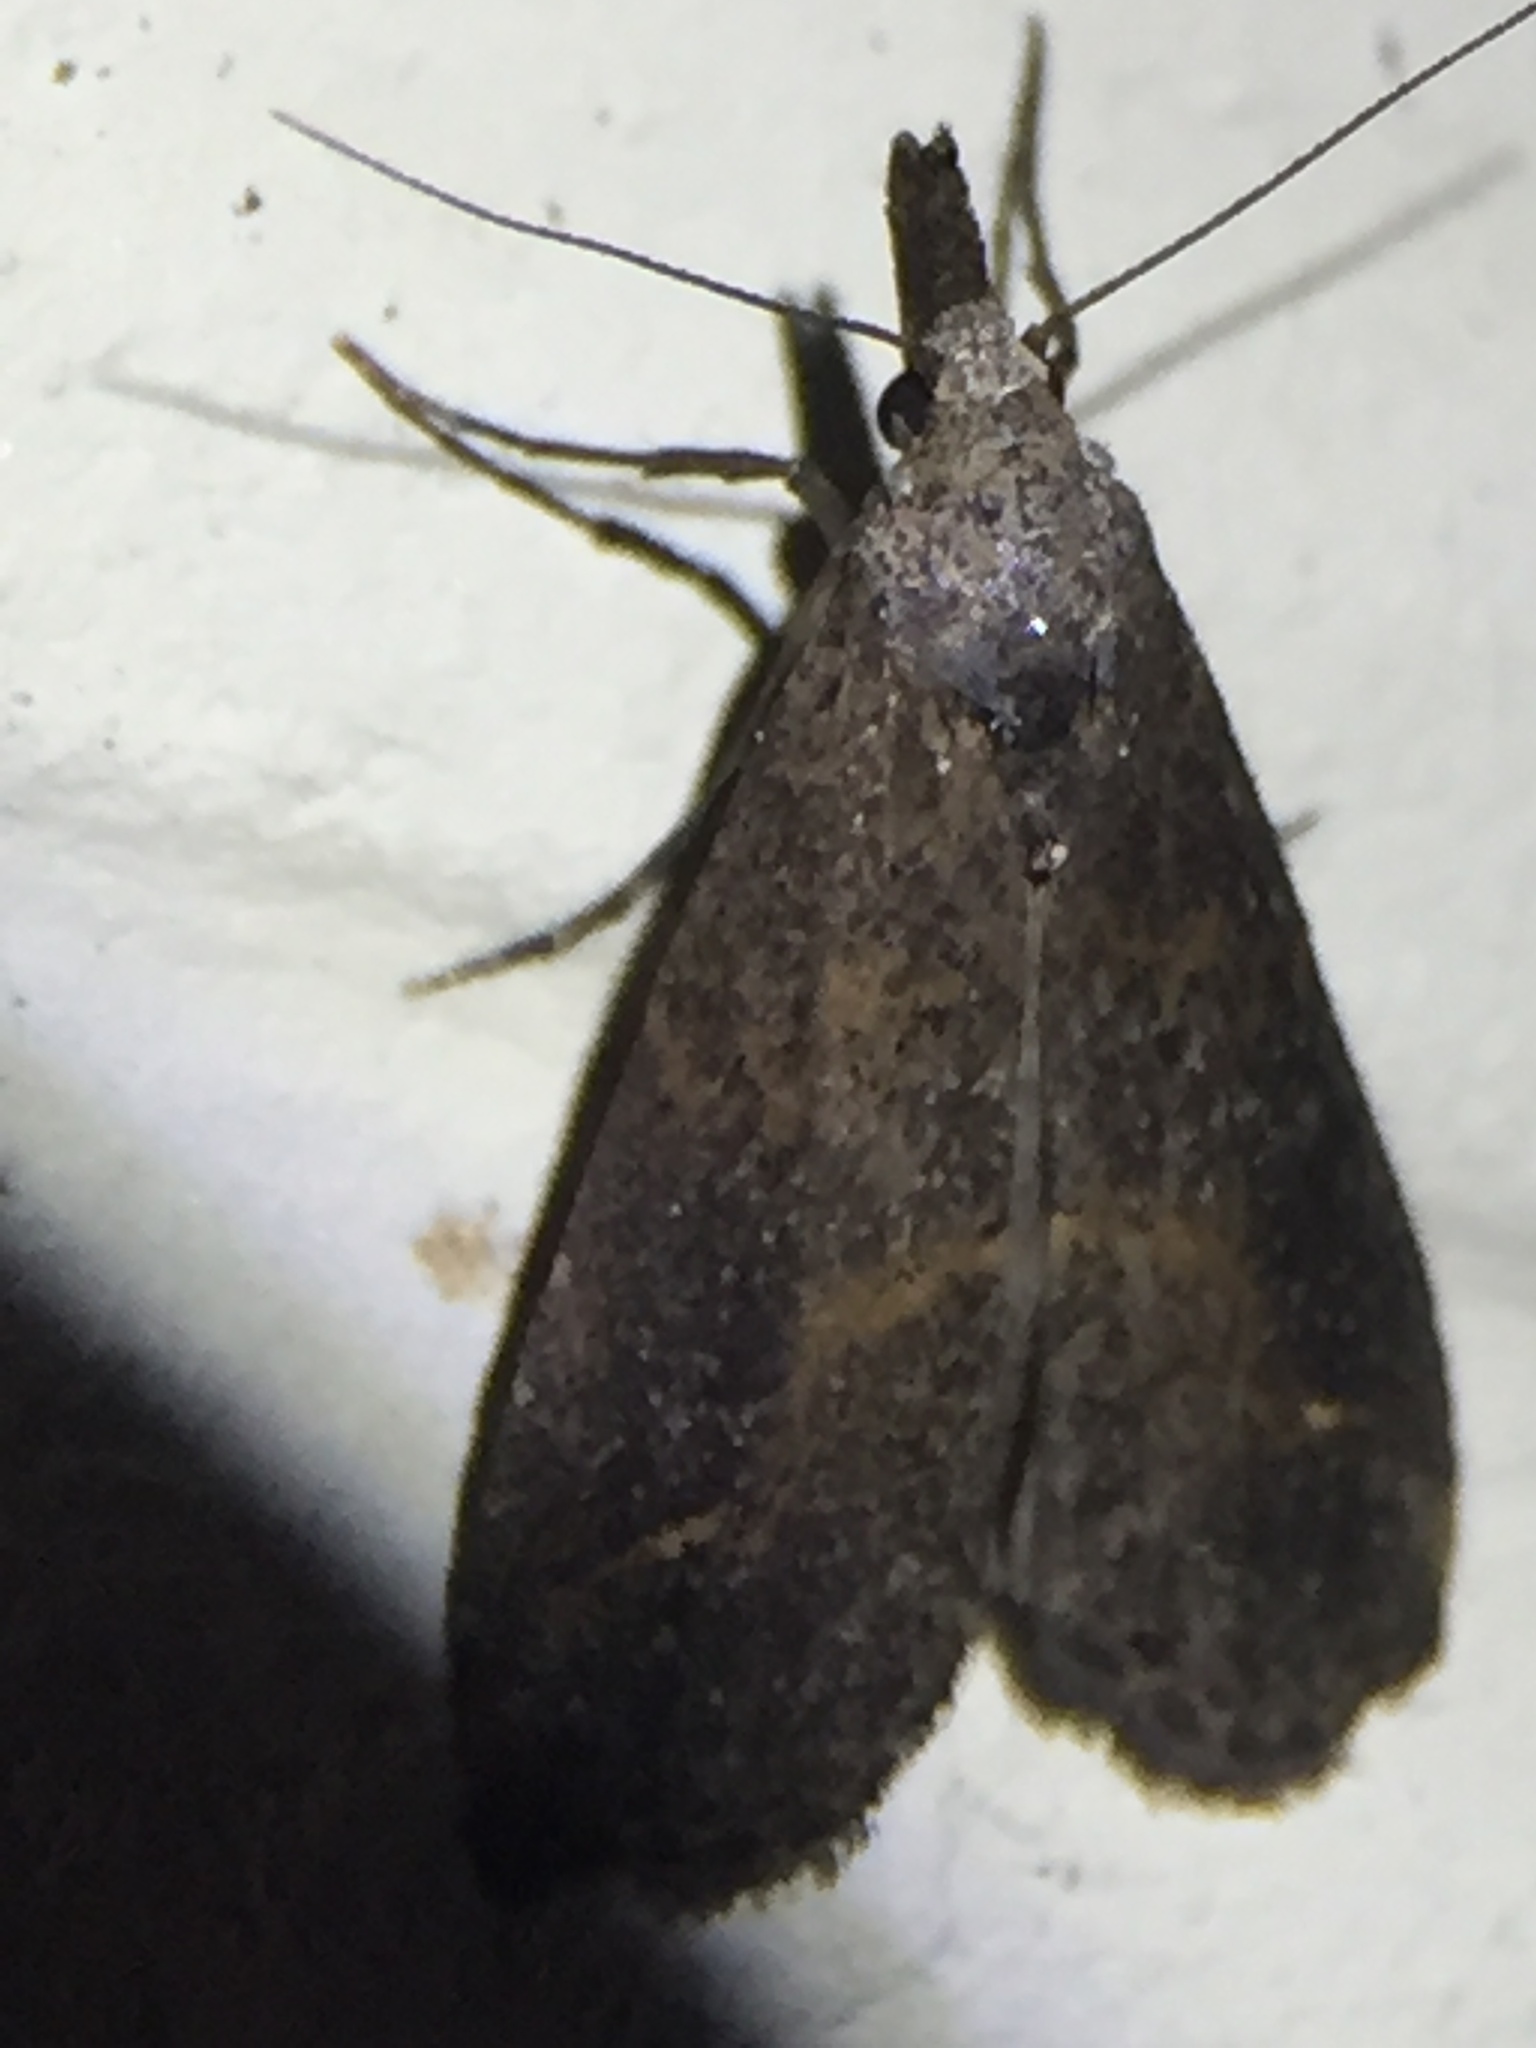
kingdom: Animalia
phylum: Arthropoda
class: Insecta
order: Lepidoptera
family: Erebidae
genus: Schrankia
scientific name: Schrankia costaestrigalis
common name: Pinion-streaked snout
